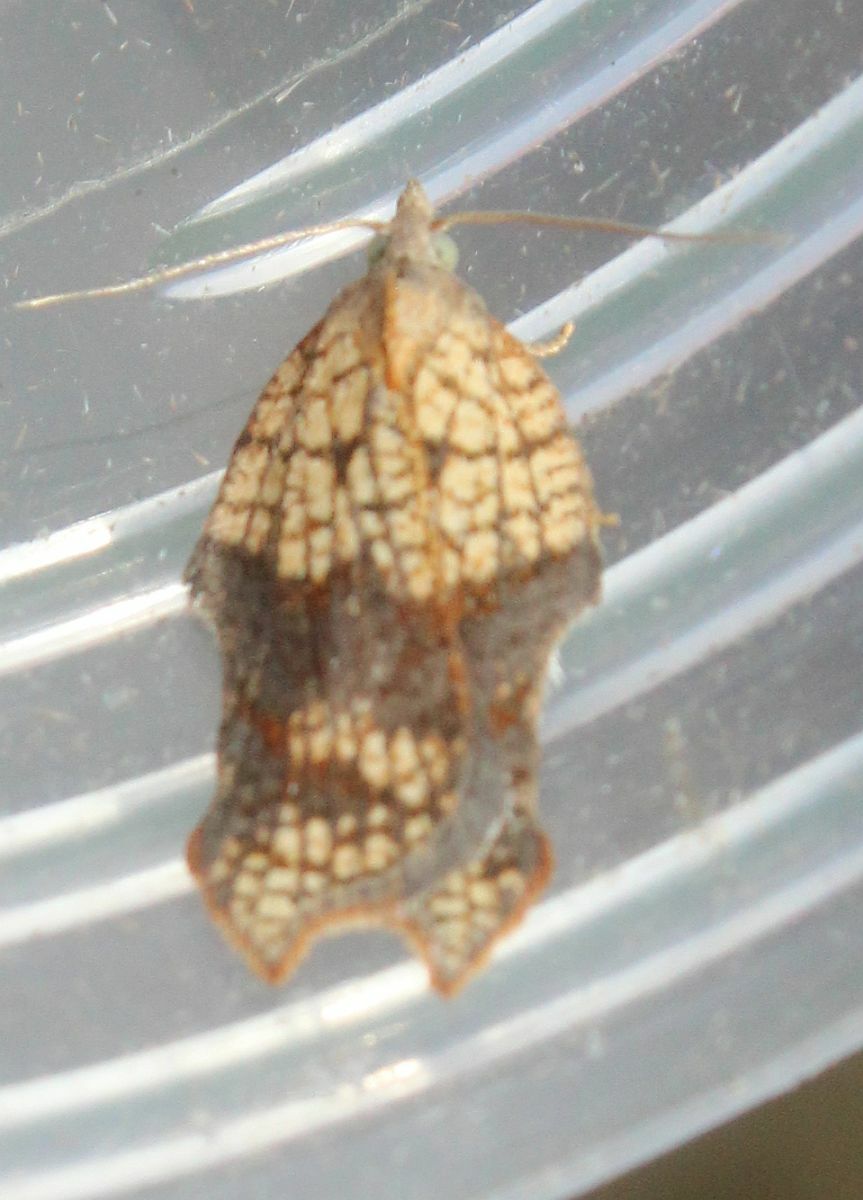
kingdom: Animalia
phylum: Arthropoda
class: Insecta
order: Lepidoptera
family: Tortricidae
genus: Acleris
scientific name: Acleris emargana
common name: Notch-wing button
